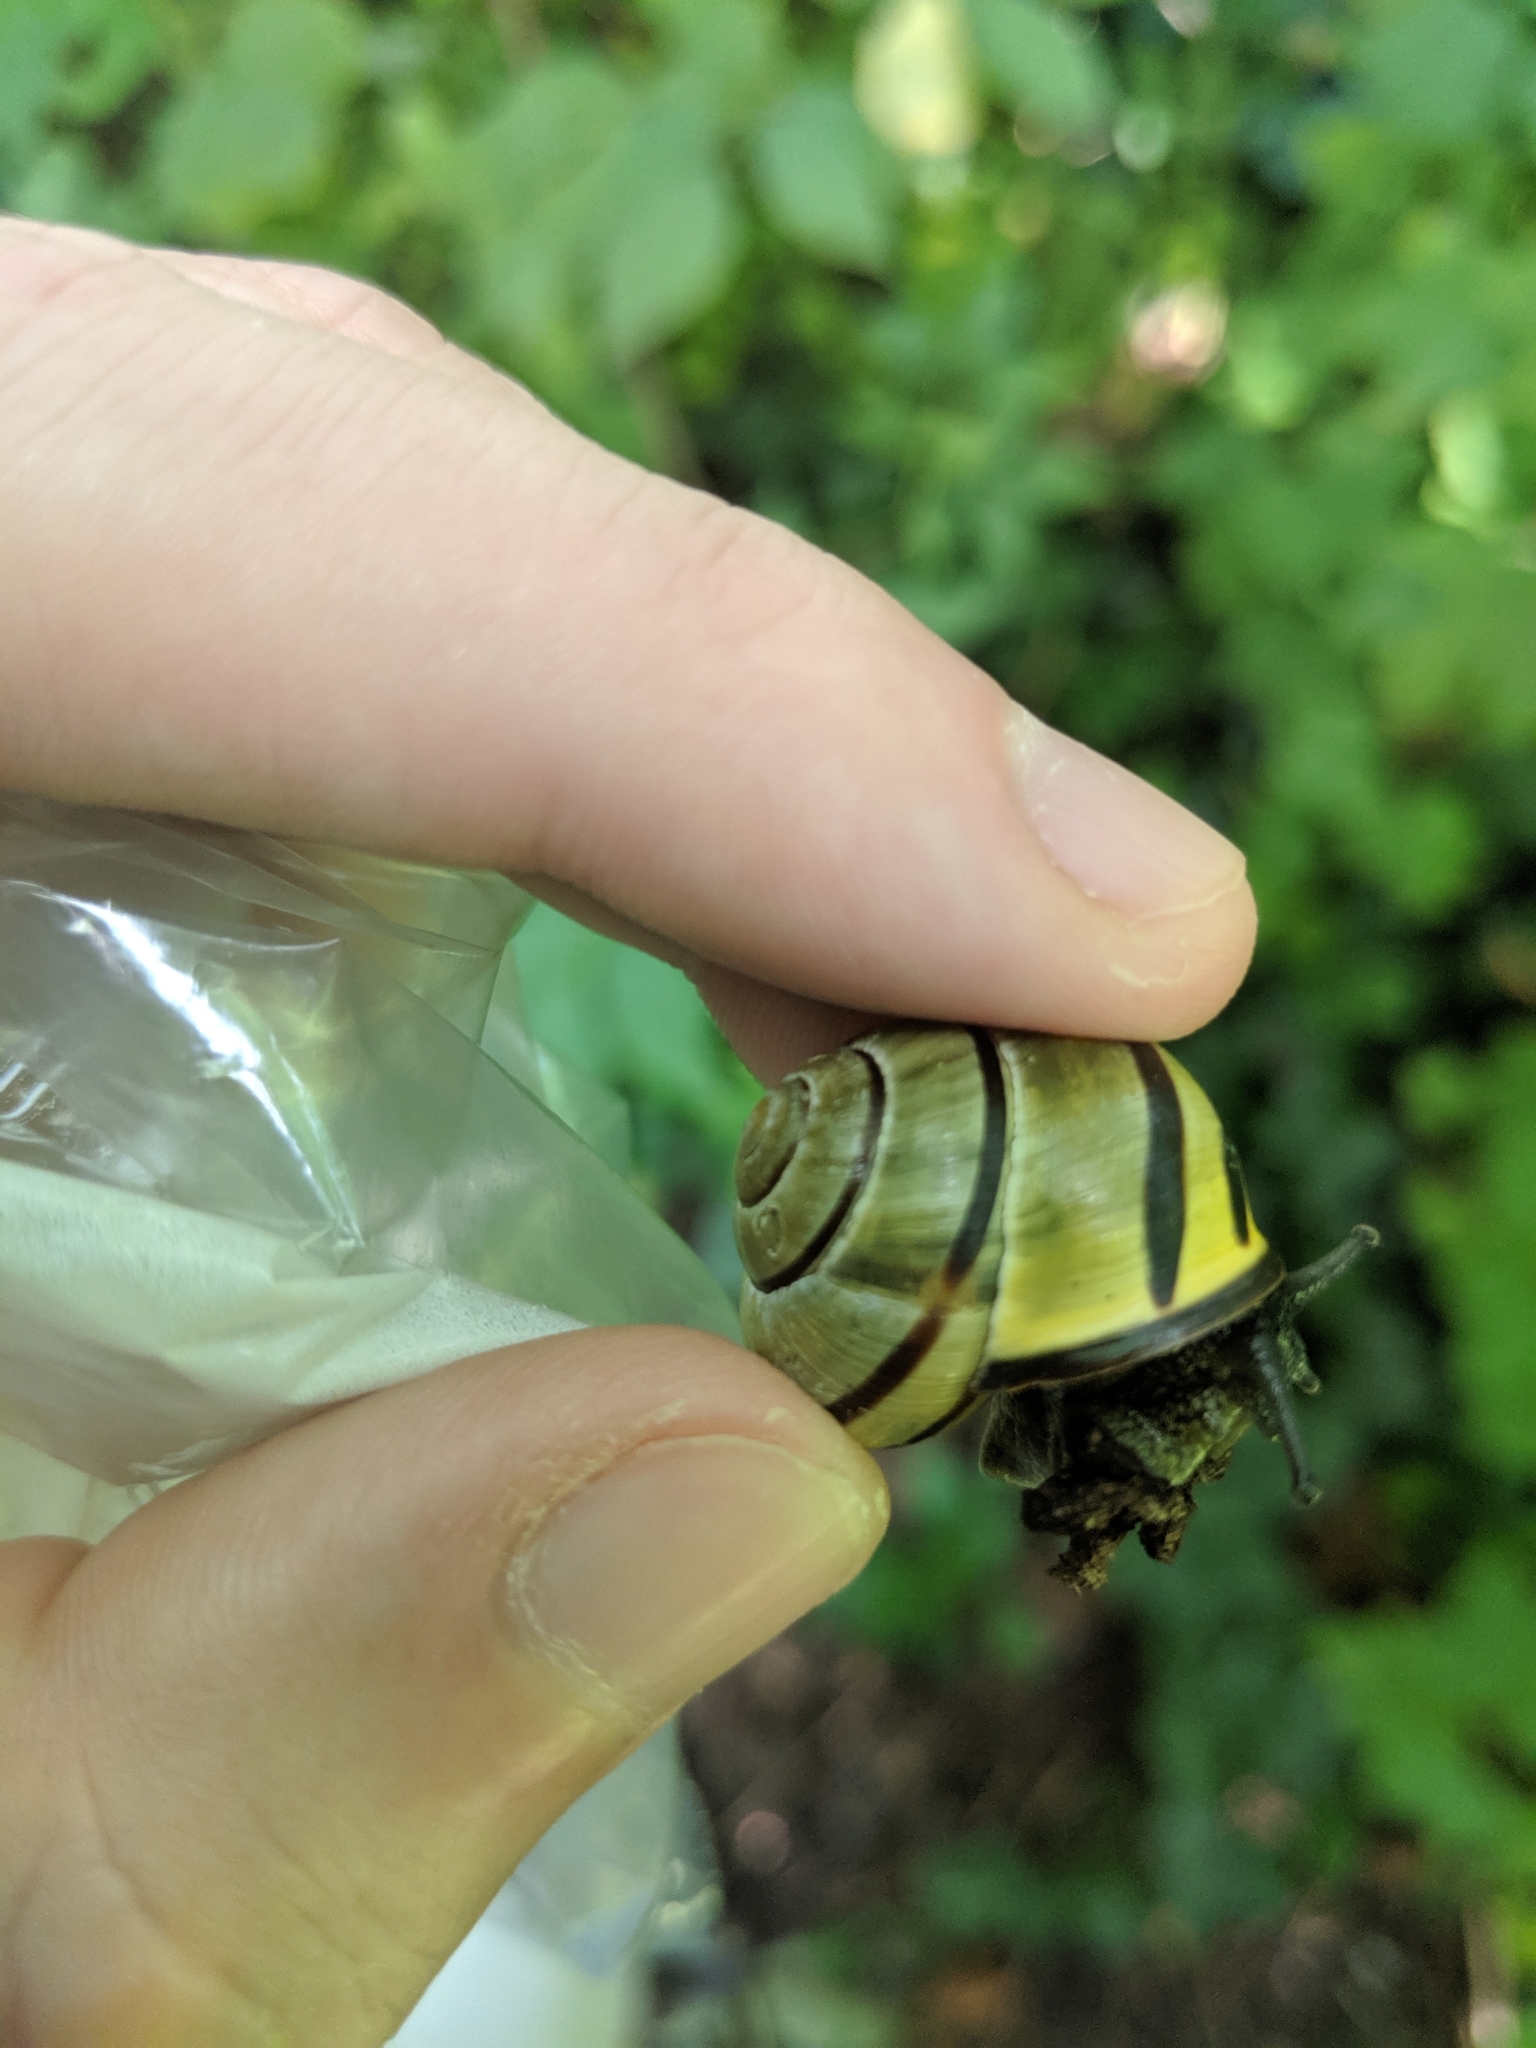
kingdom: Animalia
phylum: Mollusca
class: Gastropoda
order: Stylommatophora
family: Helicidae
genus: Cepaea
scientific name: Cepaea nemoralis
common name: Grovesnail
